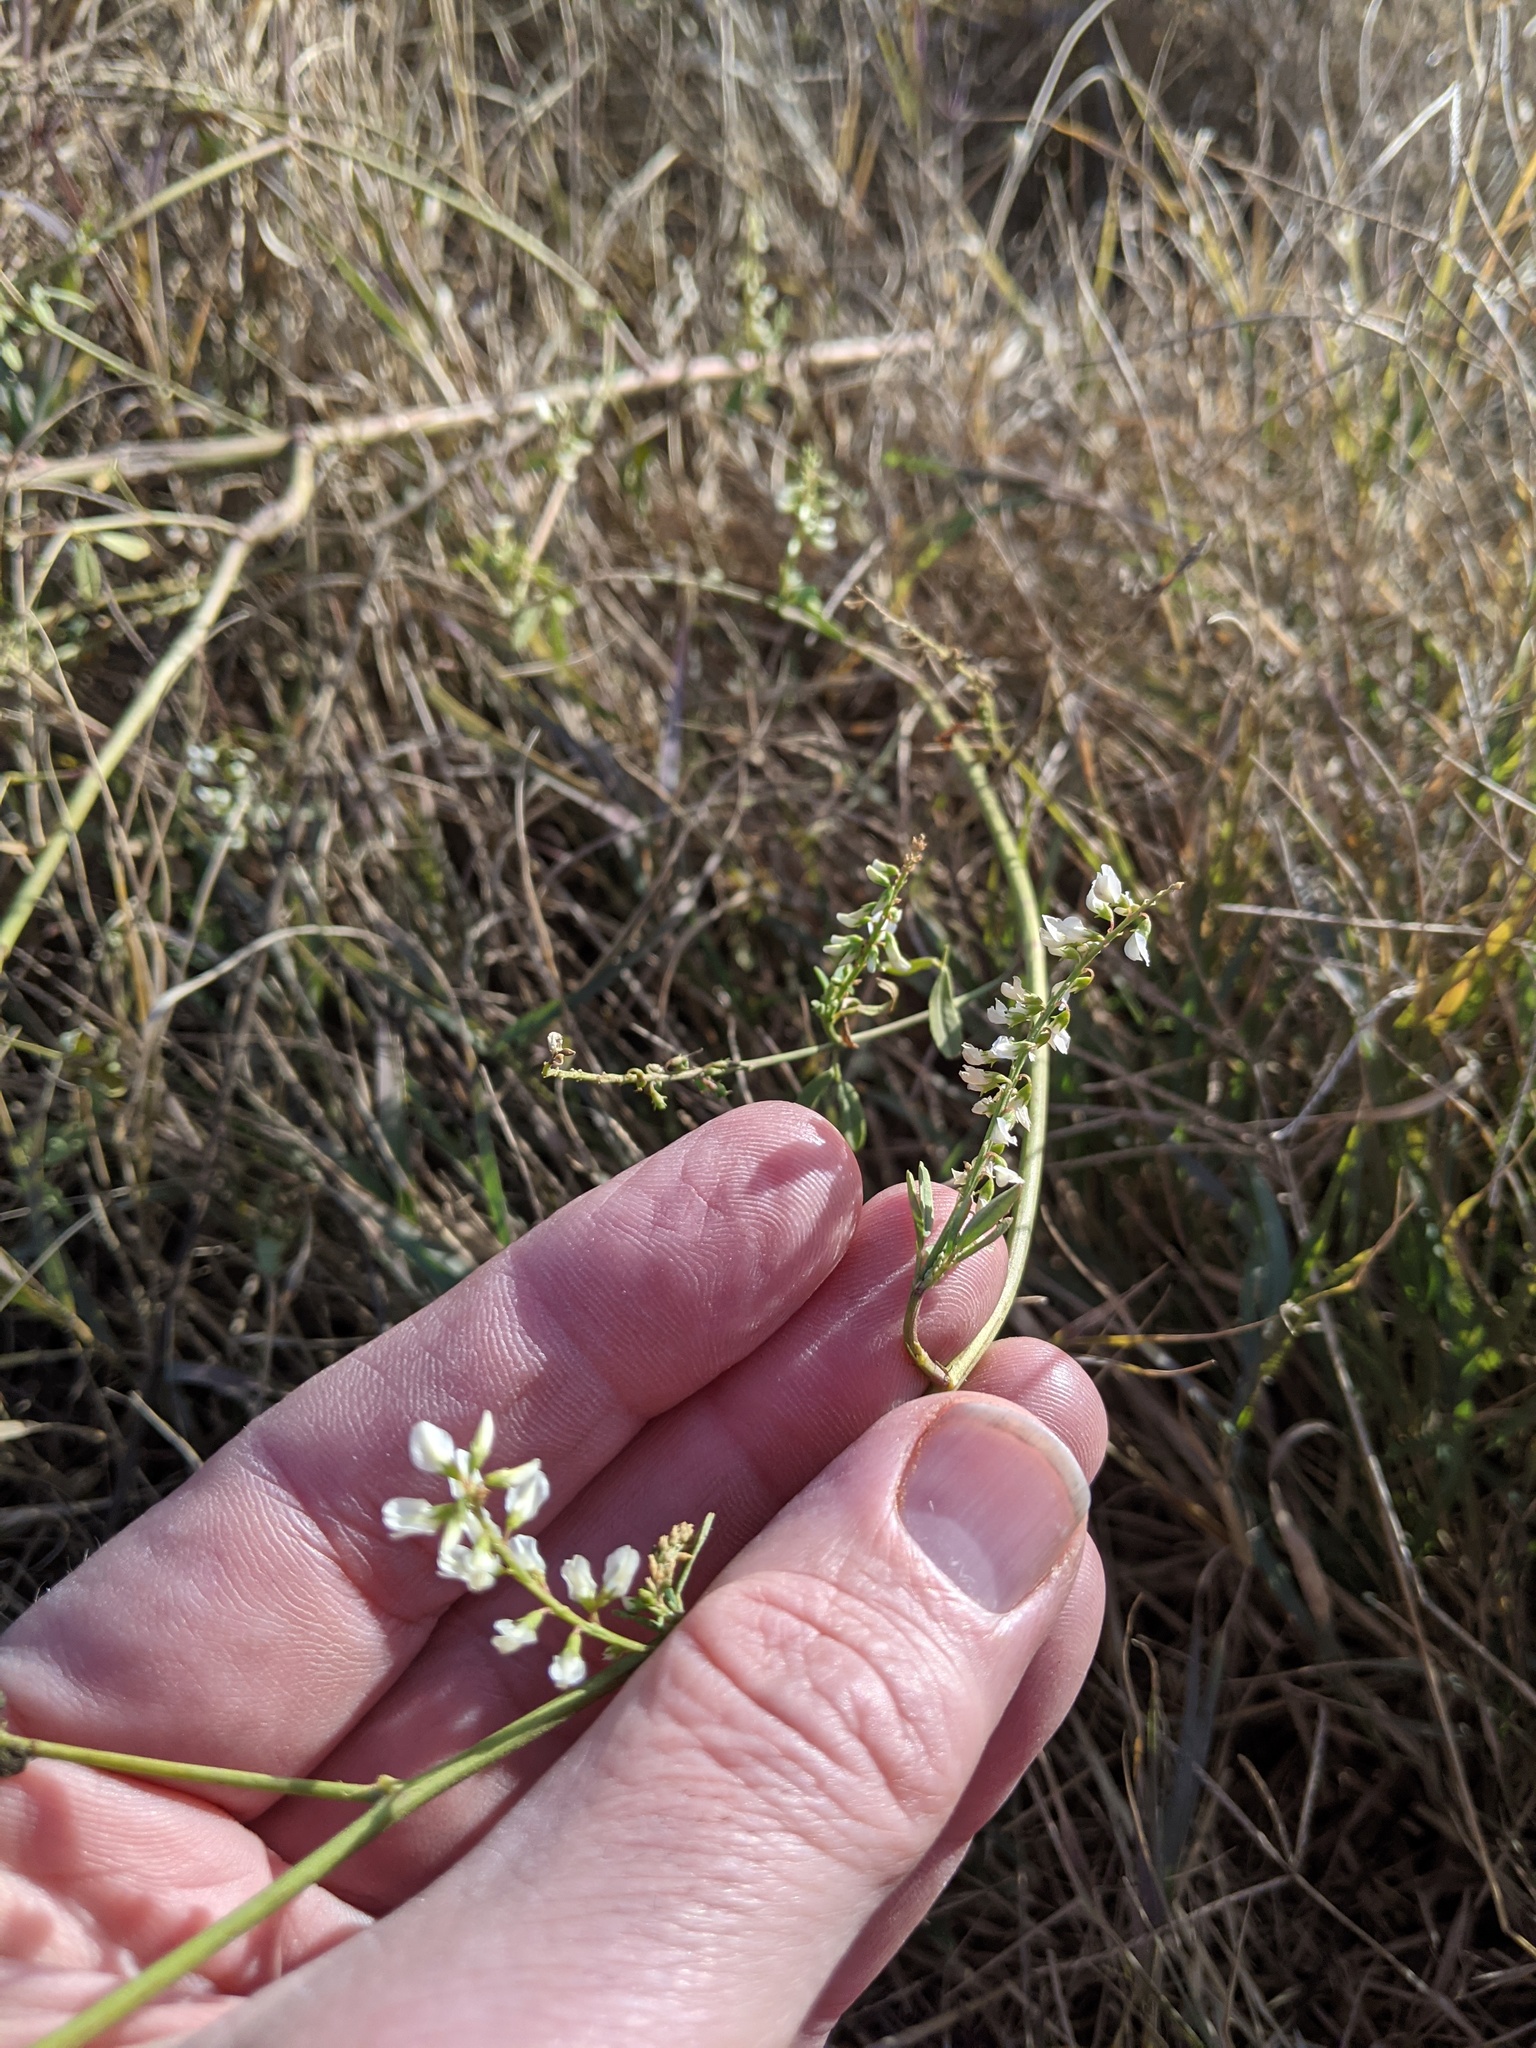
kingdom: Plantae
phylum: Tracheophyta
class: Magnoliopsida
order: Fabales
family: Fabaceae
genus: Melilotus
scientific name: Melilotus albus
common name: White melilot
